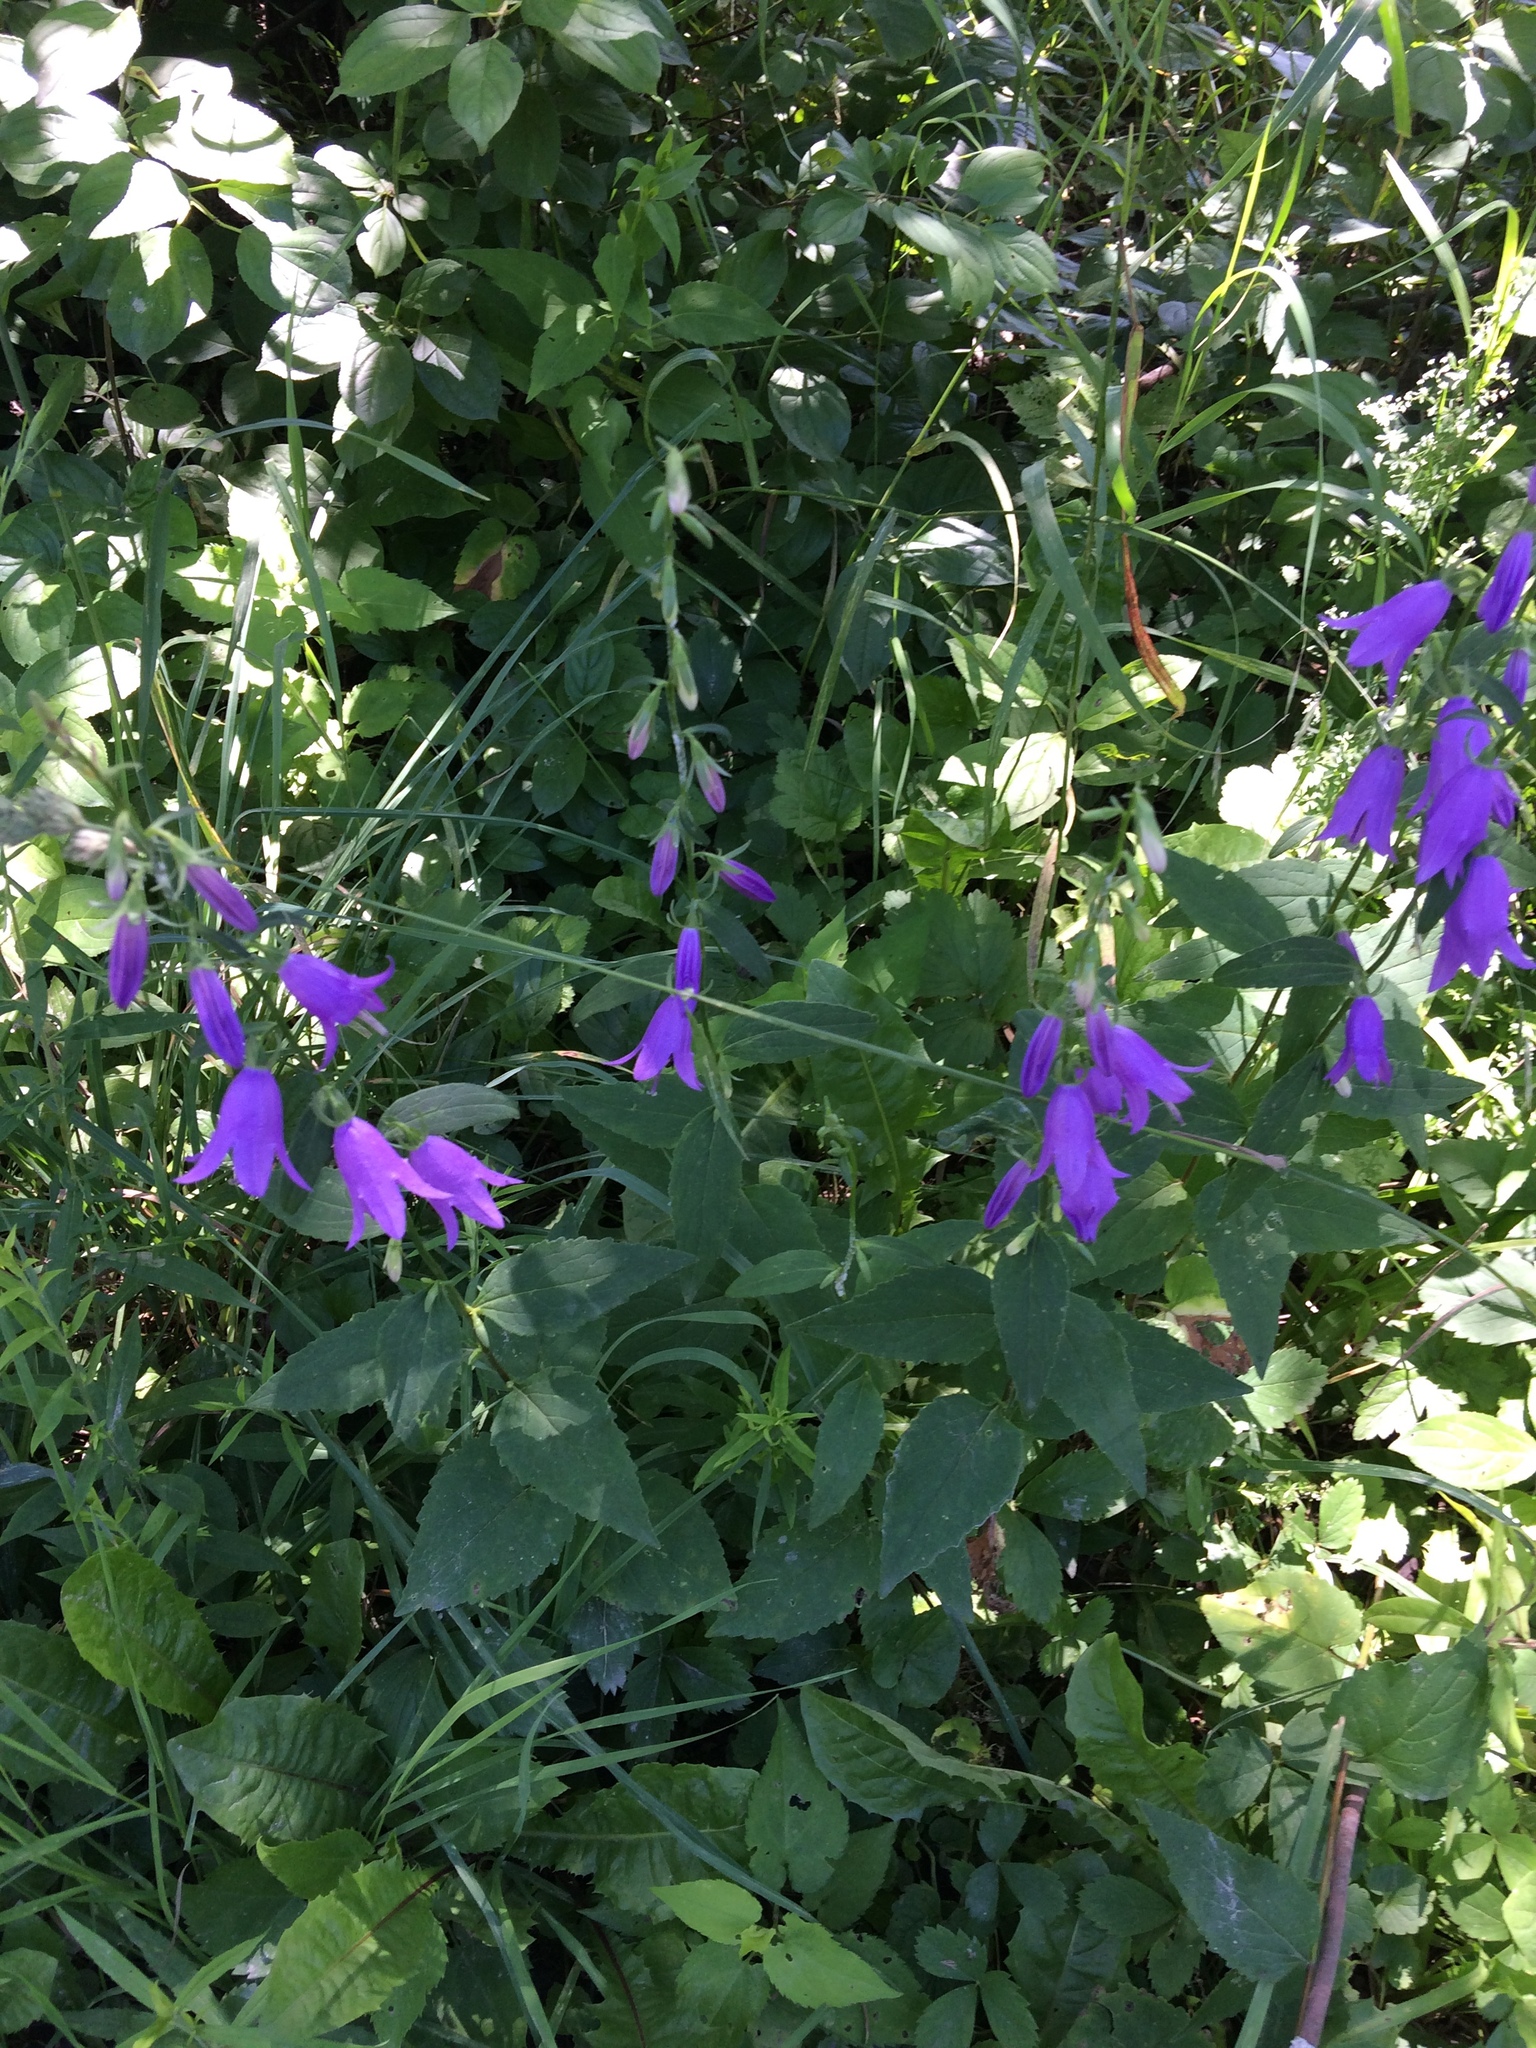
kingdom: Plantae
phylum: Tracheophyta
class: Magnoliopsida
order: Asterales
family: Campanulaceae
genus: Campanula
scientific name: Campanula rapunculoides
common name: Creeping bellflower
